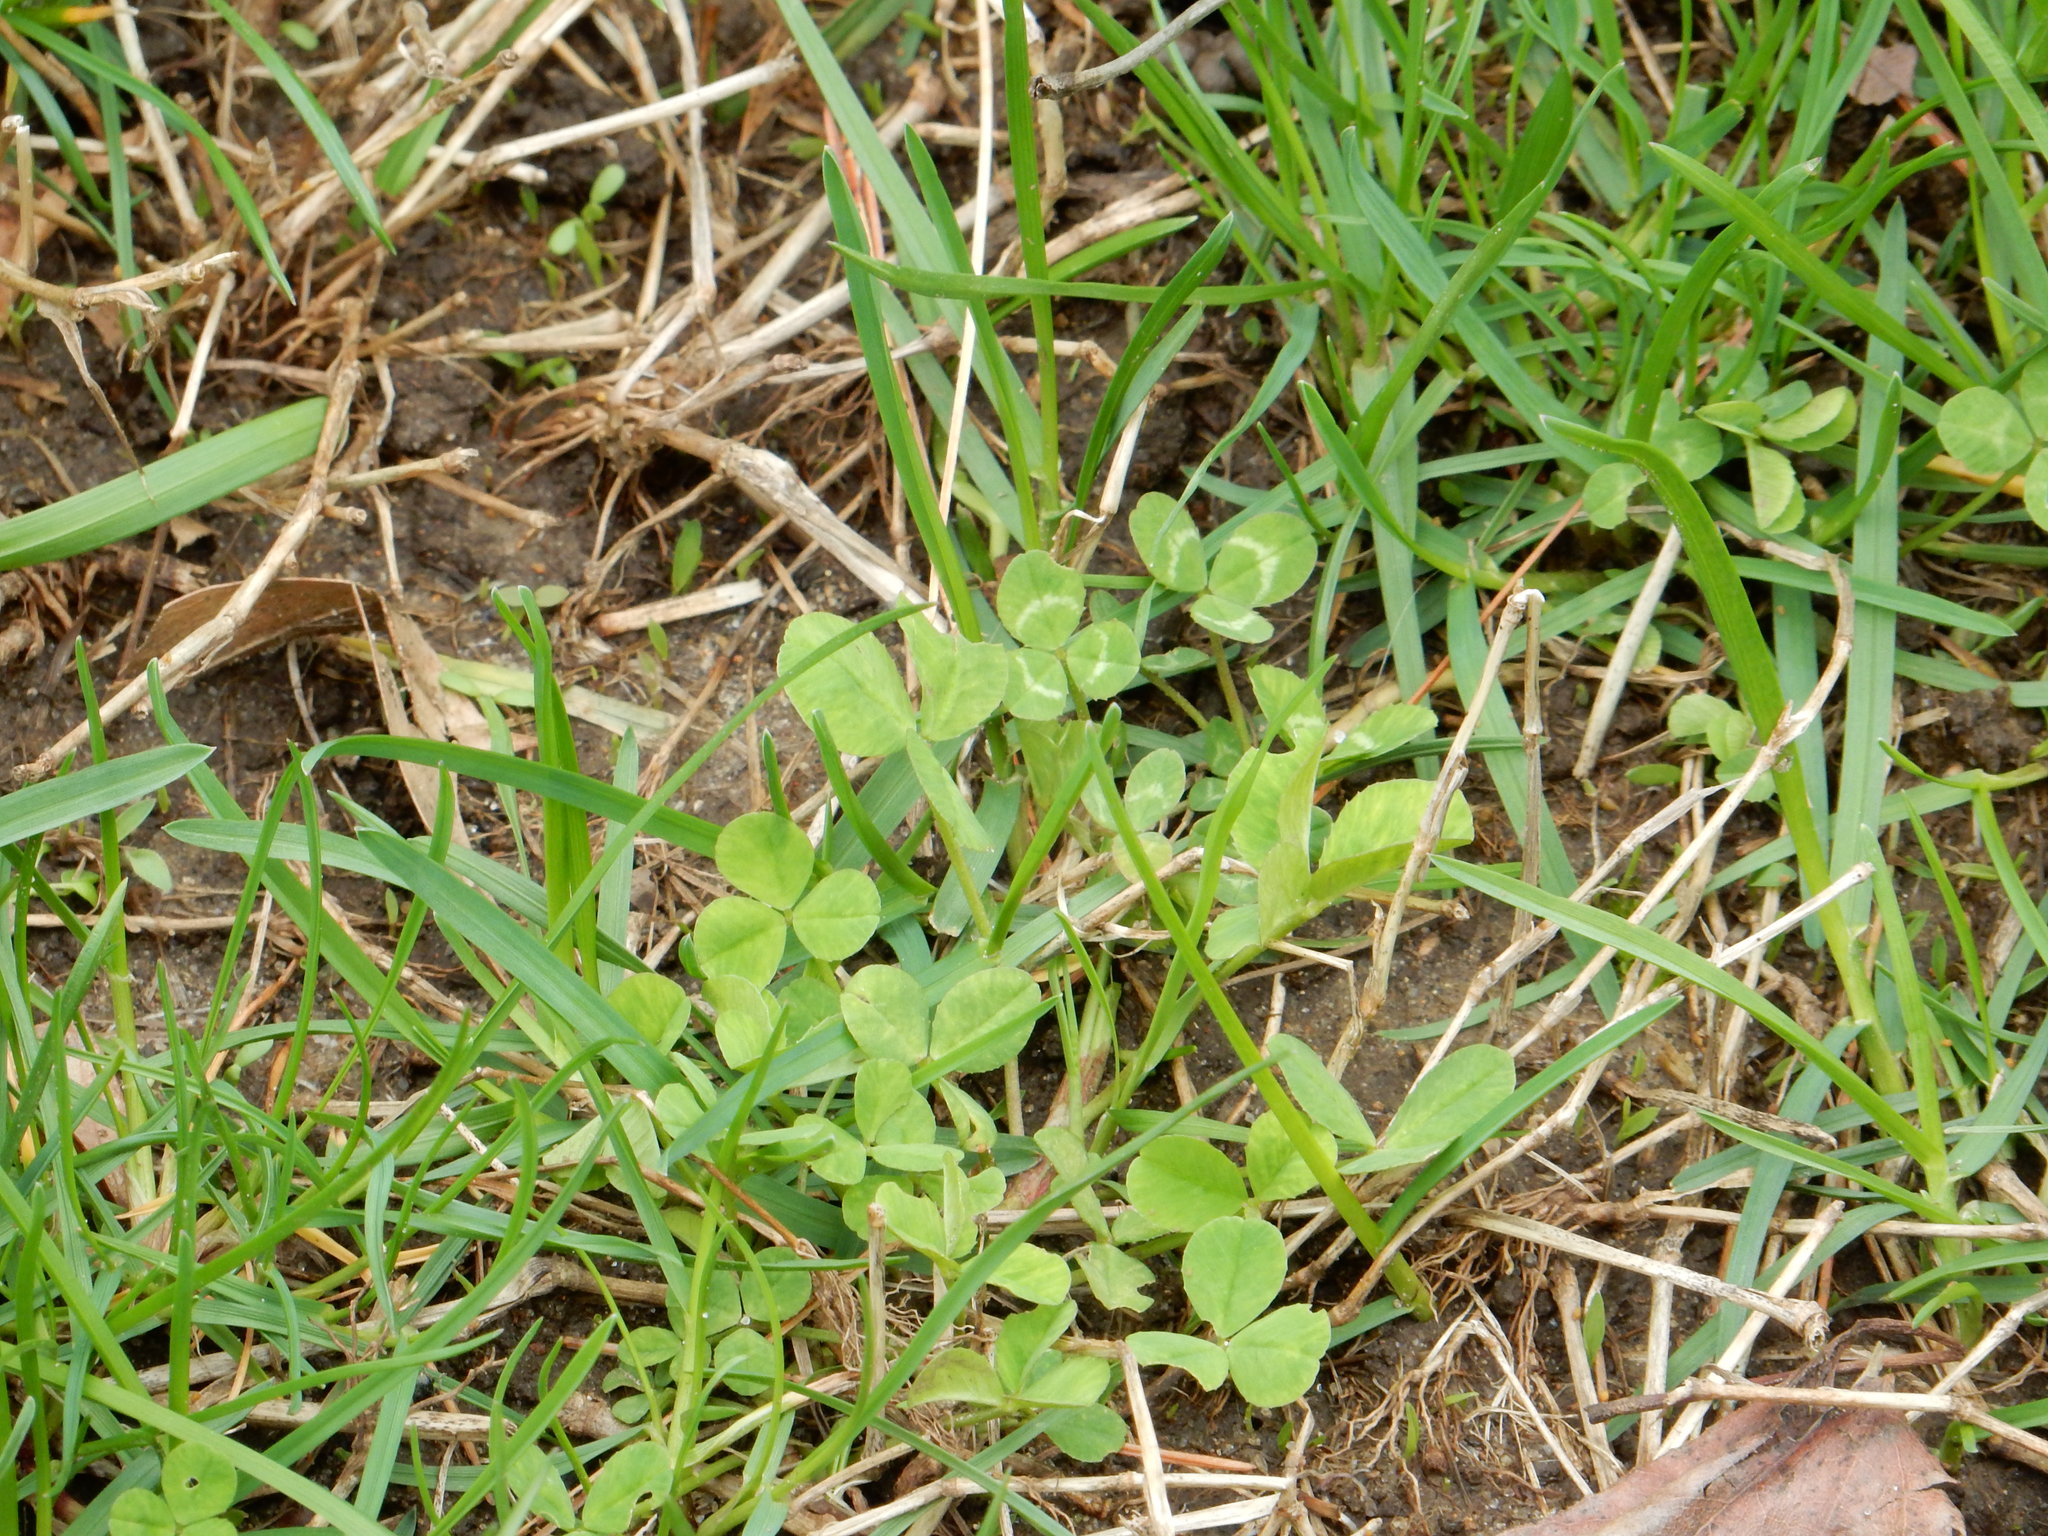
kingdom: Plantae
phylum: Tracheophyta
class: Magnoliopsida
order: Fabales
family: Fabaceae
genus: Trifolium
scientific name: Trifolium repens
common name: White clover
